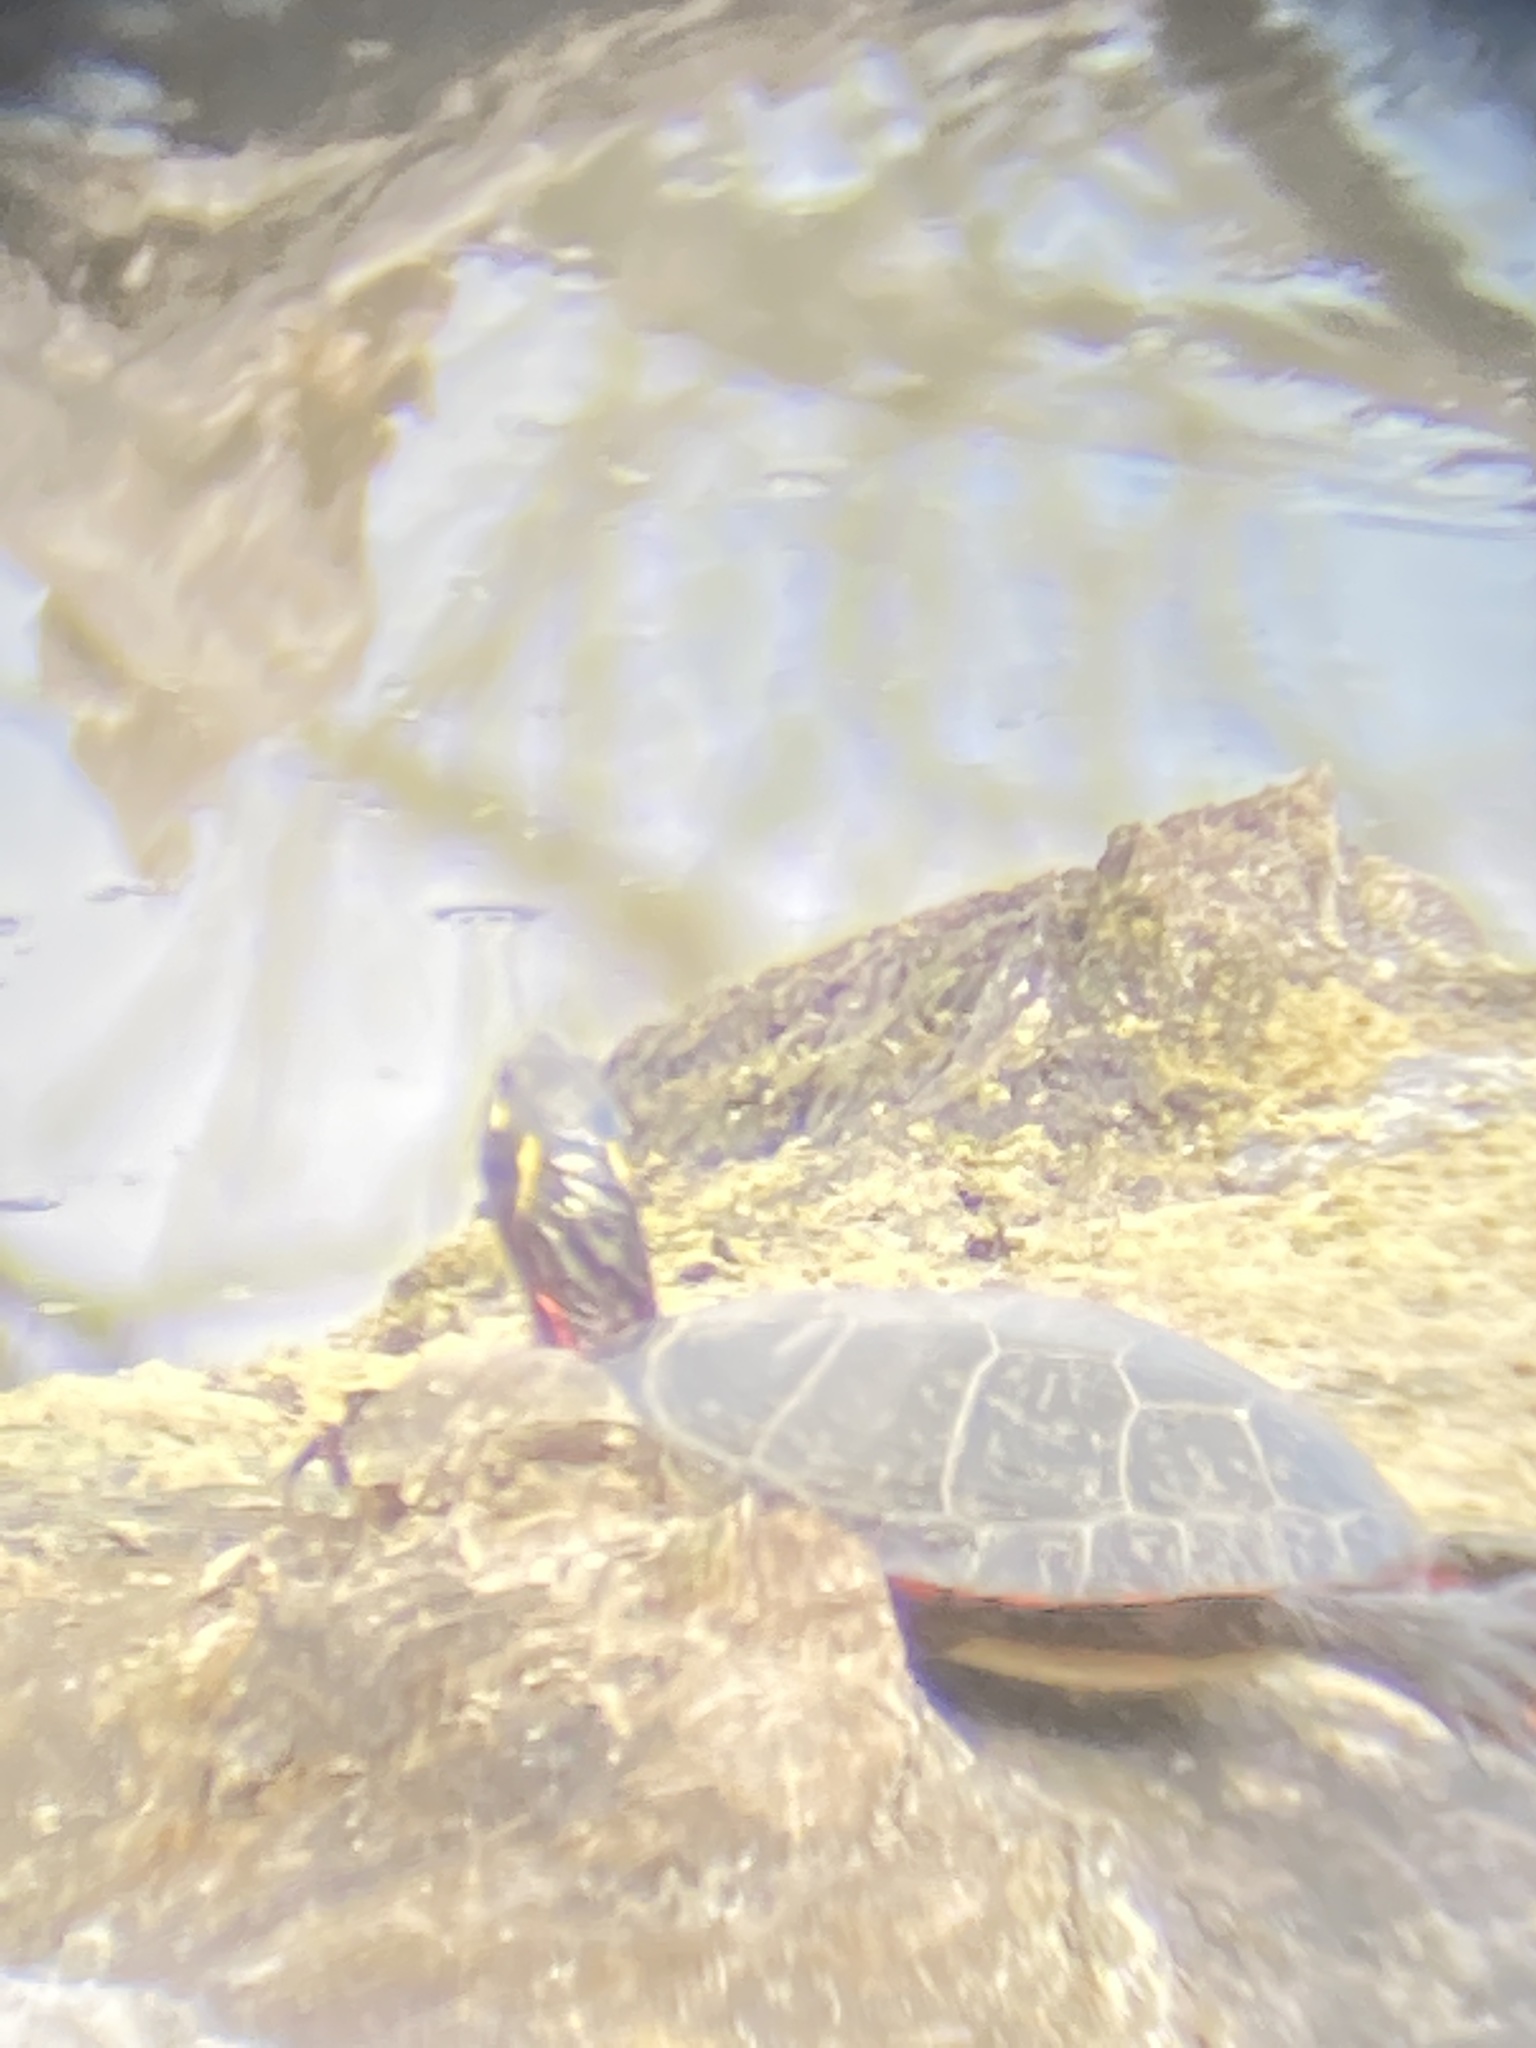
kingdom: Animalia
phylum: Chordata
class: Testudines
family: Emydidae
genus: Chrysemys
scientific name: Chrysemys picta
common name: Painted turtle
